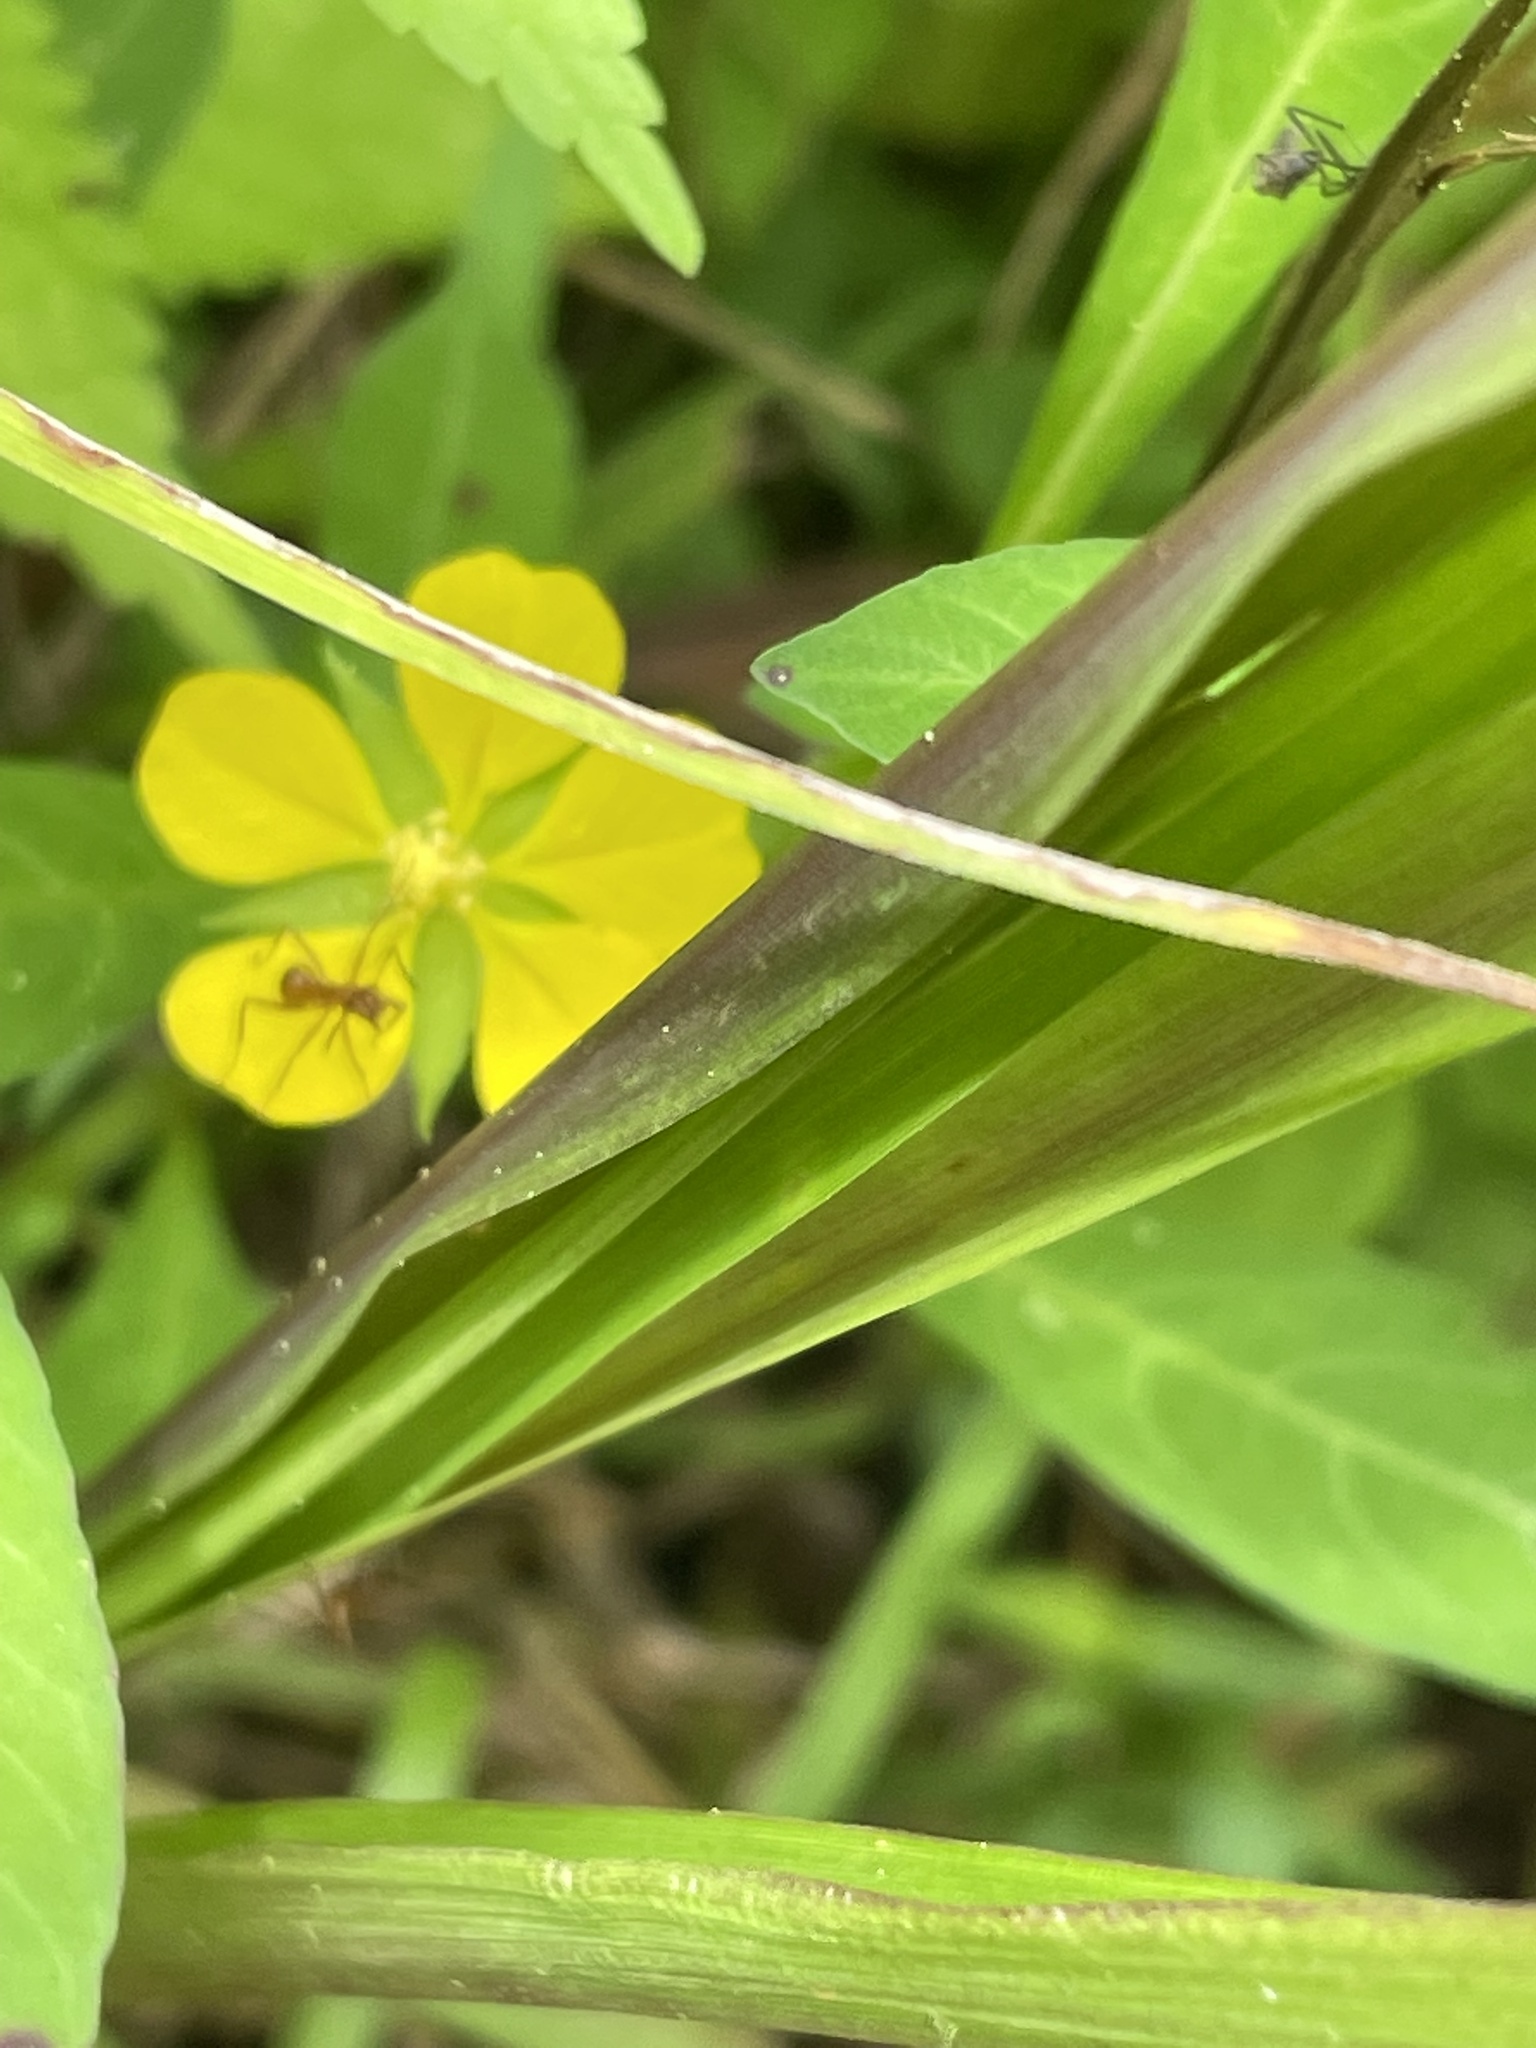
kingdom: Plantae
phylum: Tracheophyta
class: Magnoliopsida
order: Myrtales
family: Onagraceae
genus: Ludwigia
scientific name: Ludwigia leptocarpa
